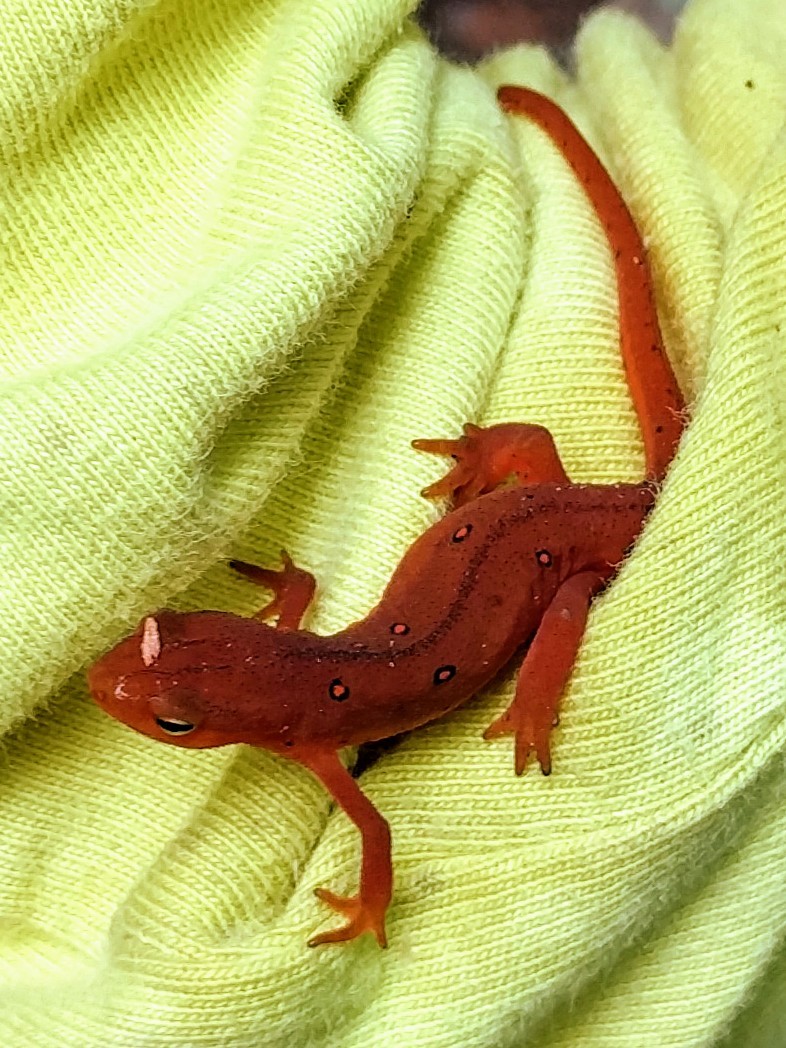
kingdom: Animalia
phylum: Chordata
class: Amphibia
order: Caudata
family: Salamandridae
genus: Notophthalmus
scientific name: Notophthalmus viridescens
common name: Eastern newt
